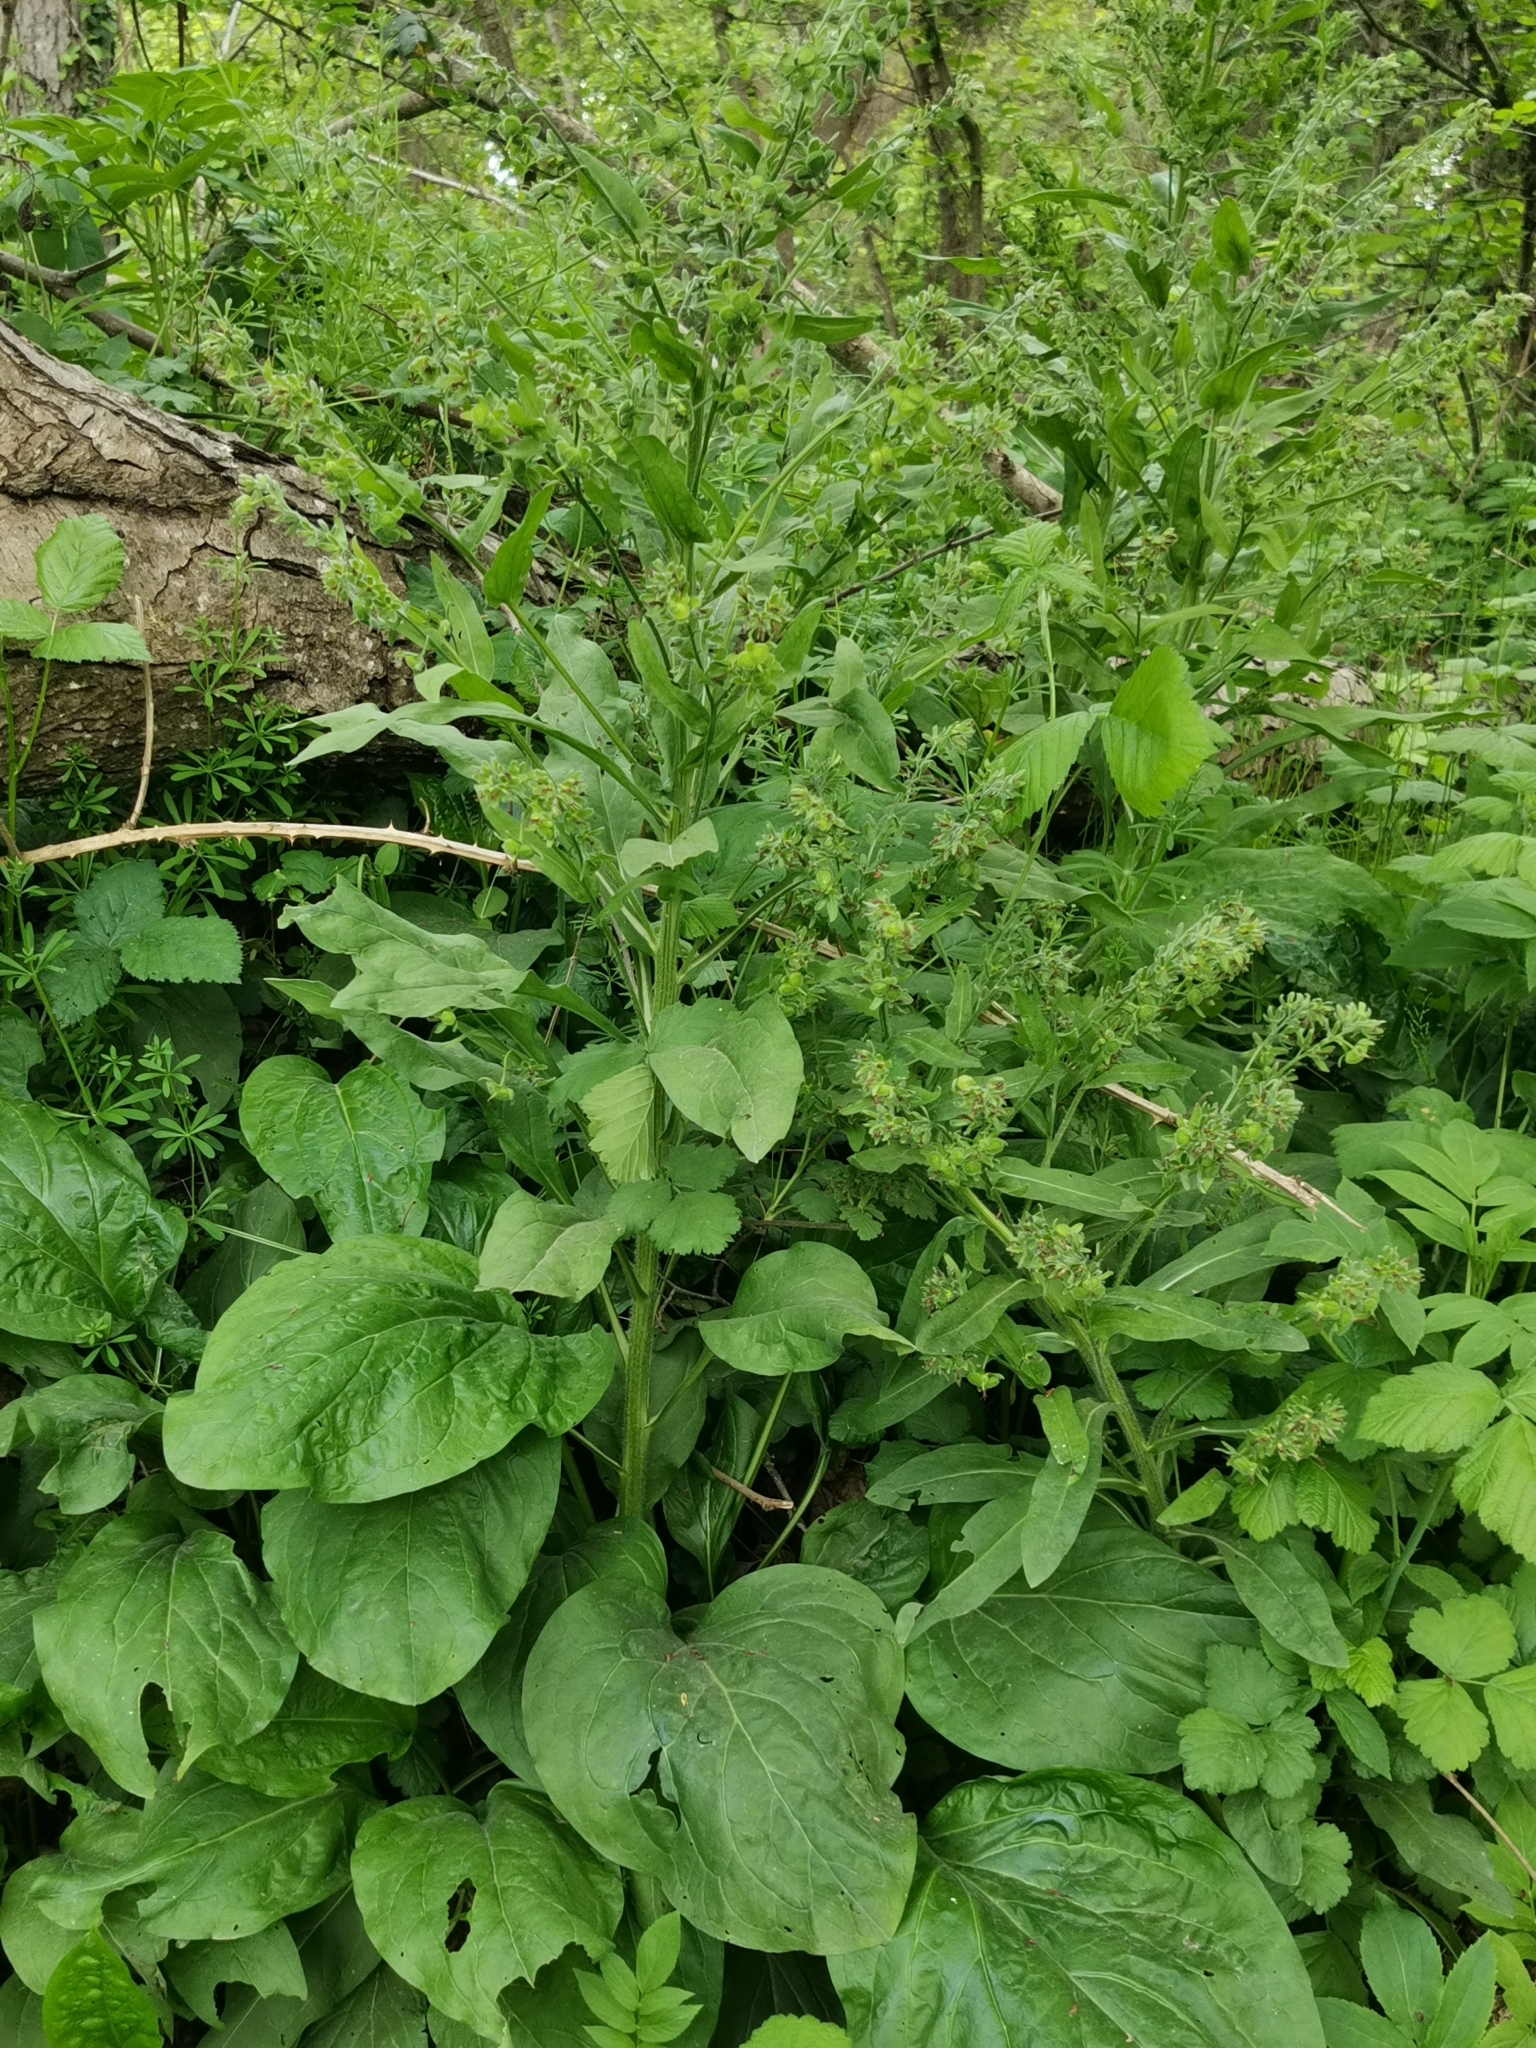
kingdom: Plantae
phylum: Tracheophyta
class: Magnoliopsida
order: Boraginales
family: Boraginaceae
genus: Cynoglossum
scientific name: Cynoglossum officinale
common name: Hound's-tongue
